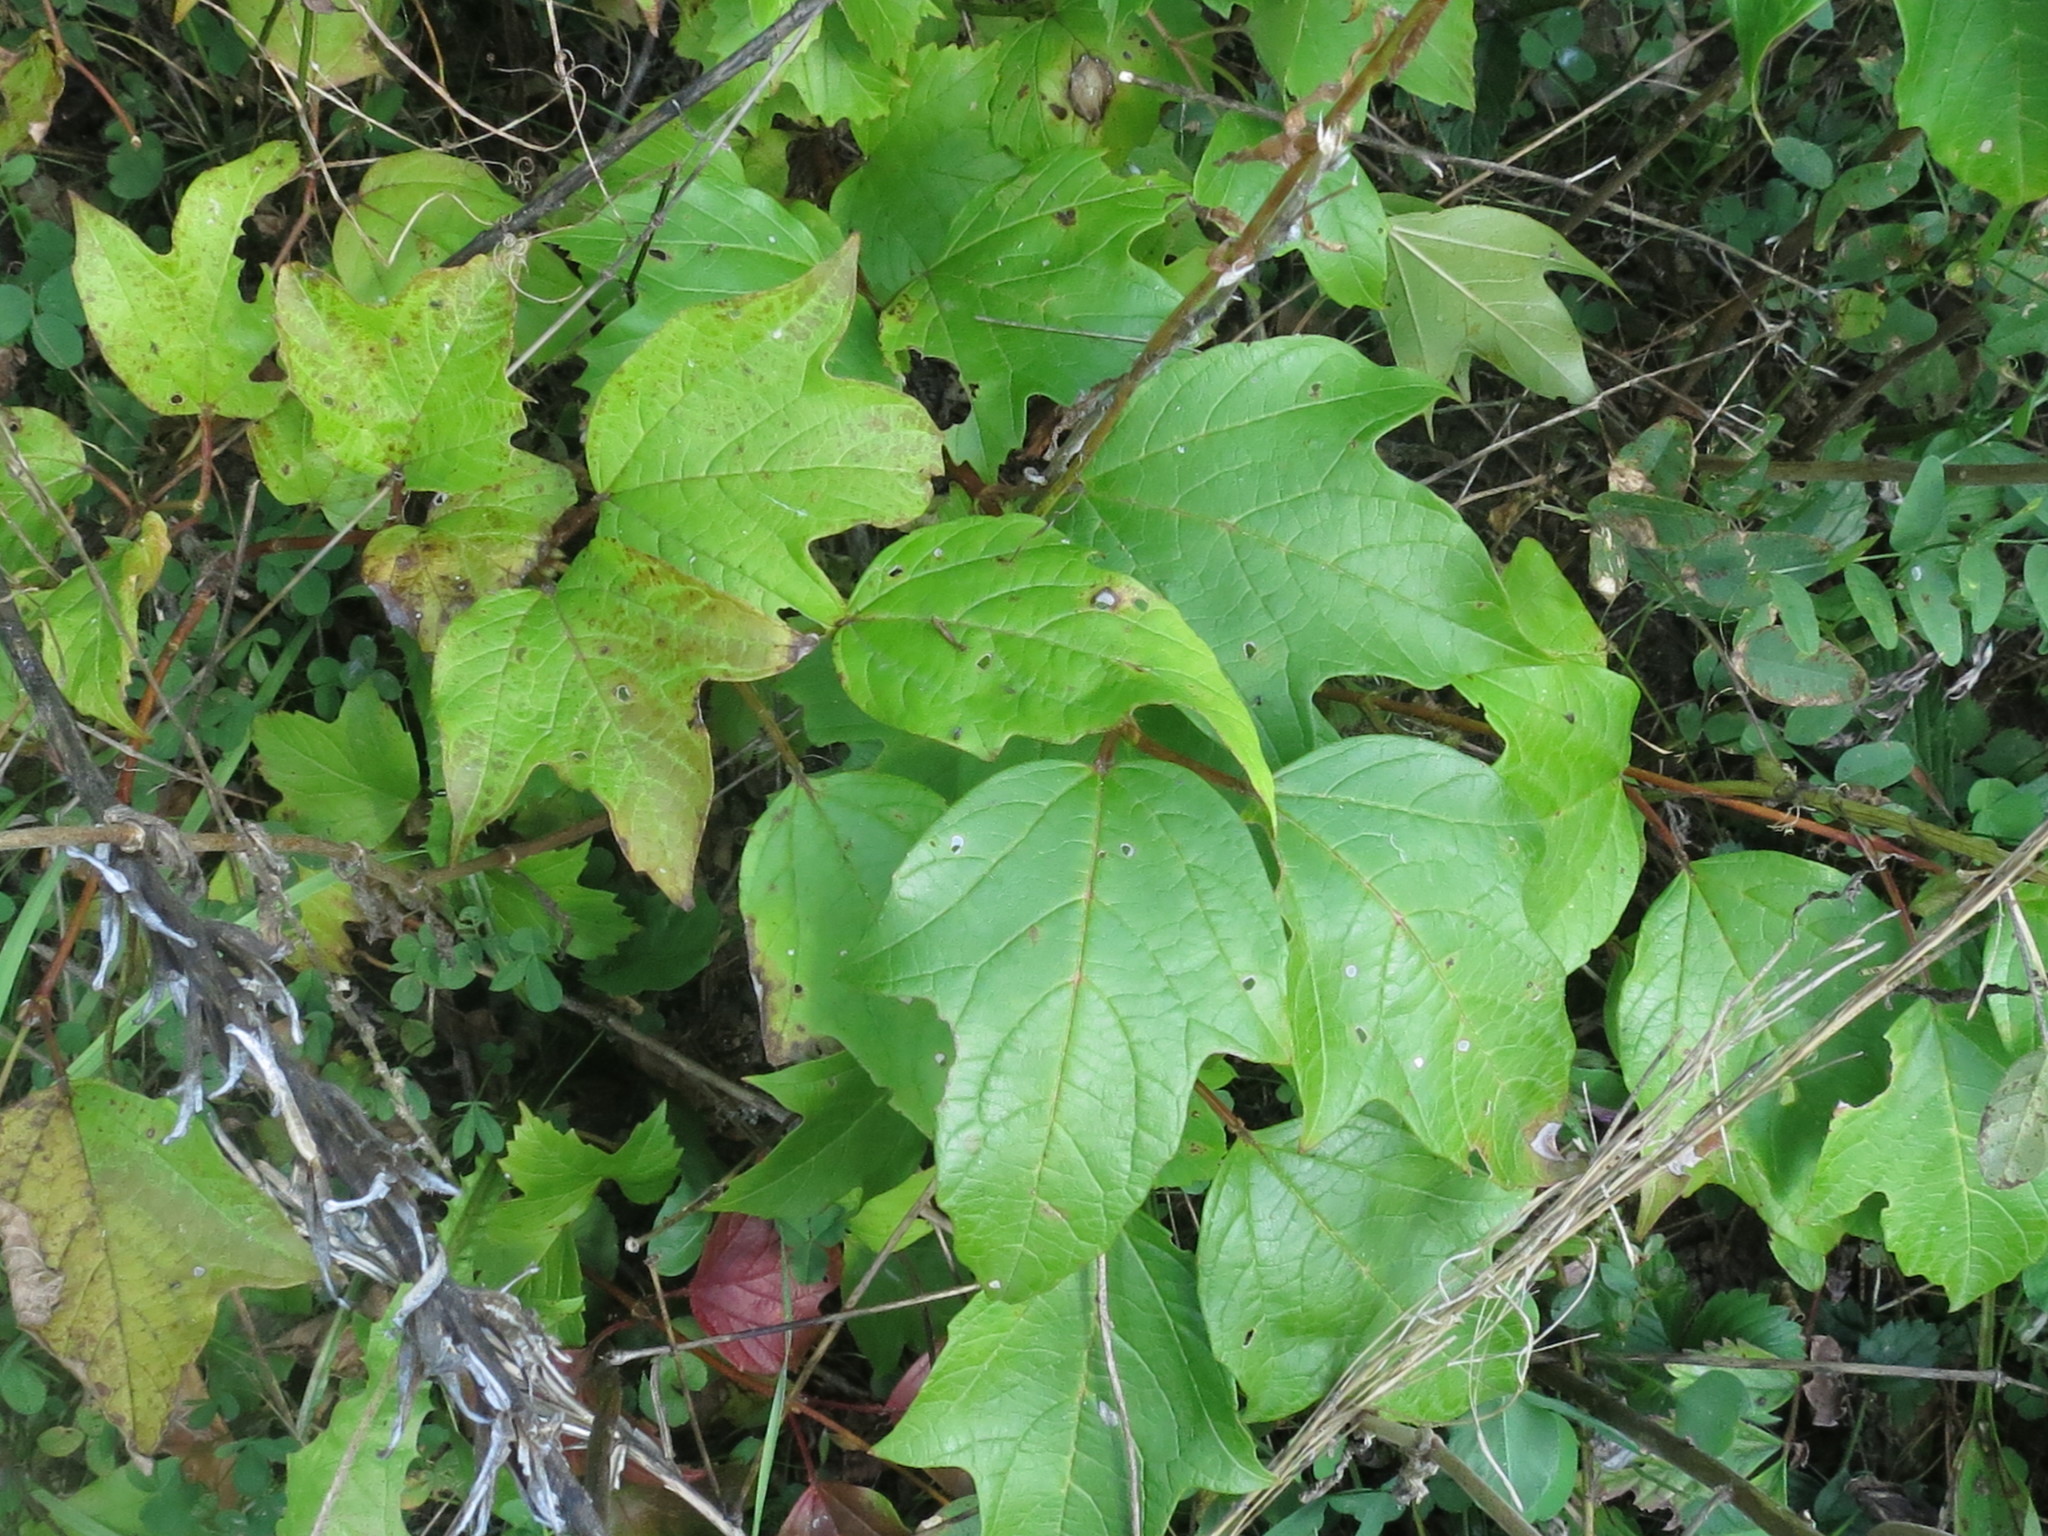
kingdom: Plantae
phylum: Tracheophyta
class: Magnoliopsida
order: Dipsacales
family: Viburnaceae
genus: Viburnum
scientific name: Viburnum sargentii
